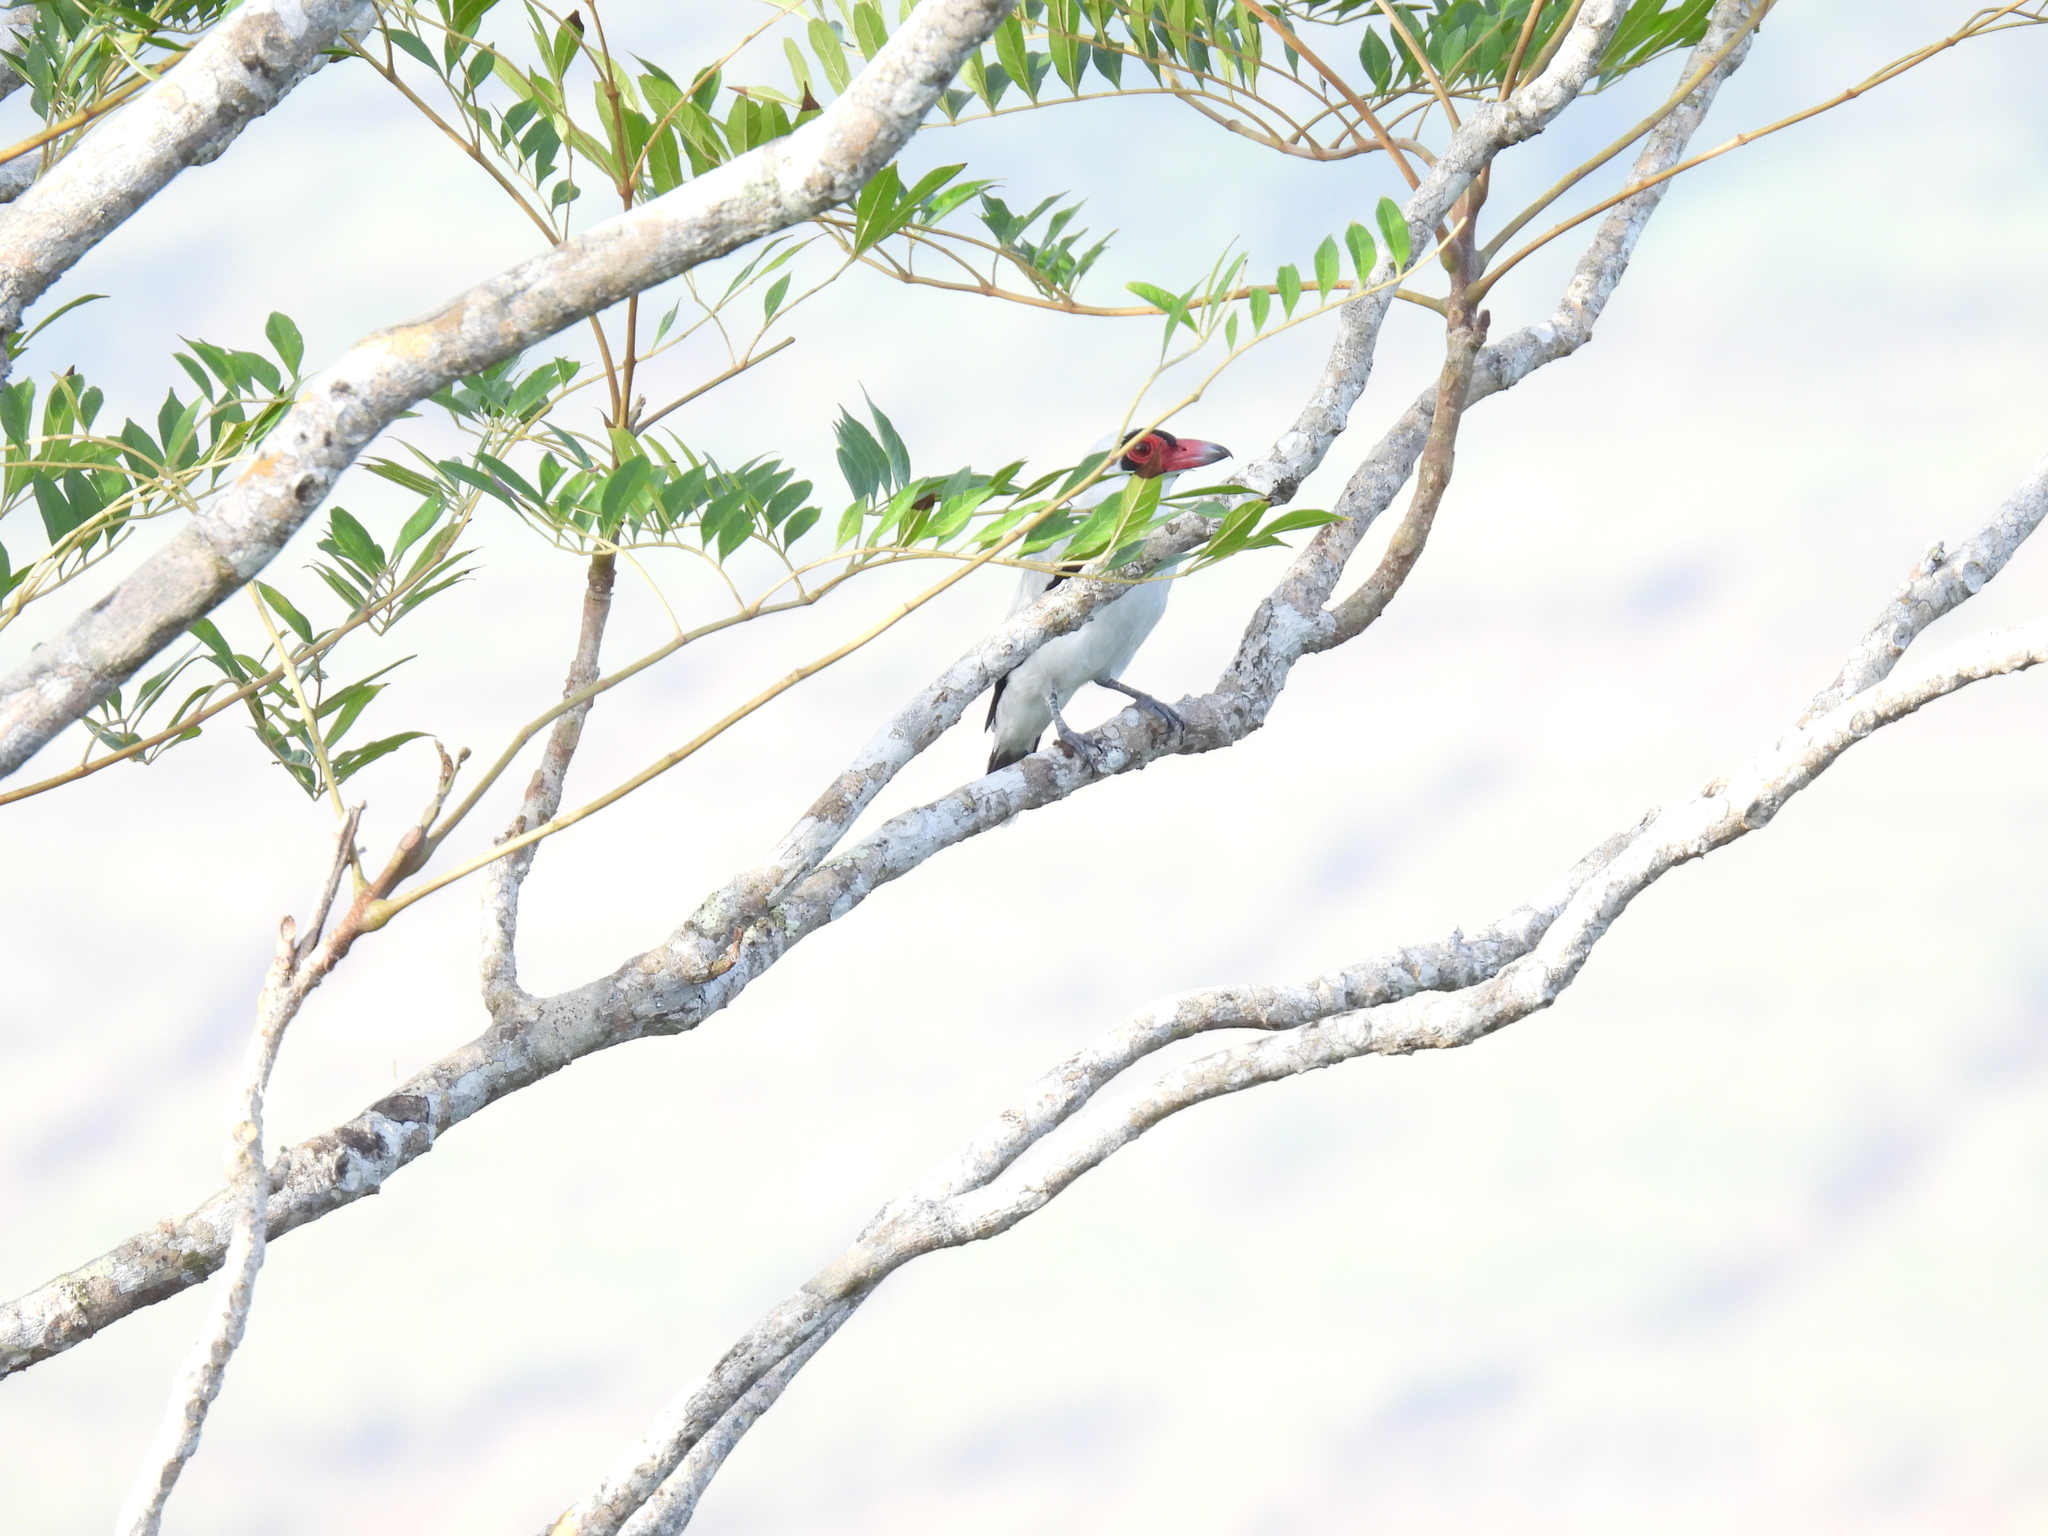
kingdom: Animalia
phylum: Chordata
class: Aves
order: Passeriformes
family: Cotingidae
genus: Tityra
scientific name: Tityra semifasciata
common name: Masked tityra
